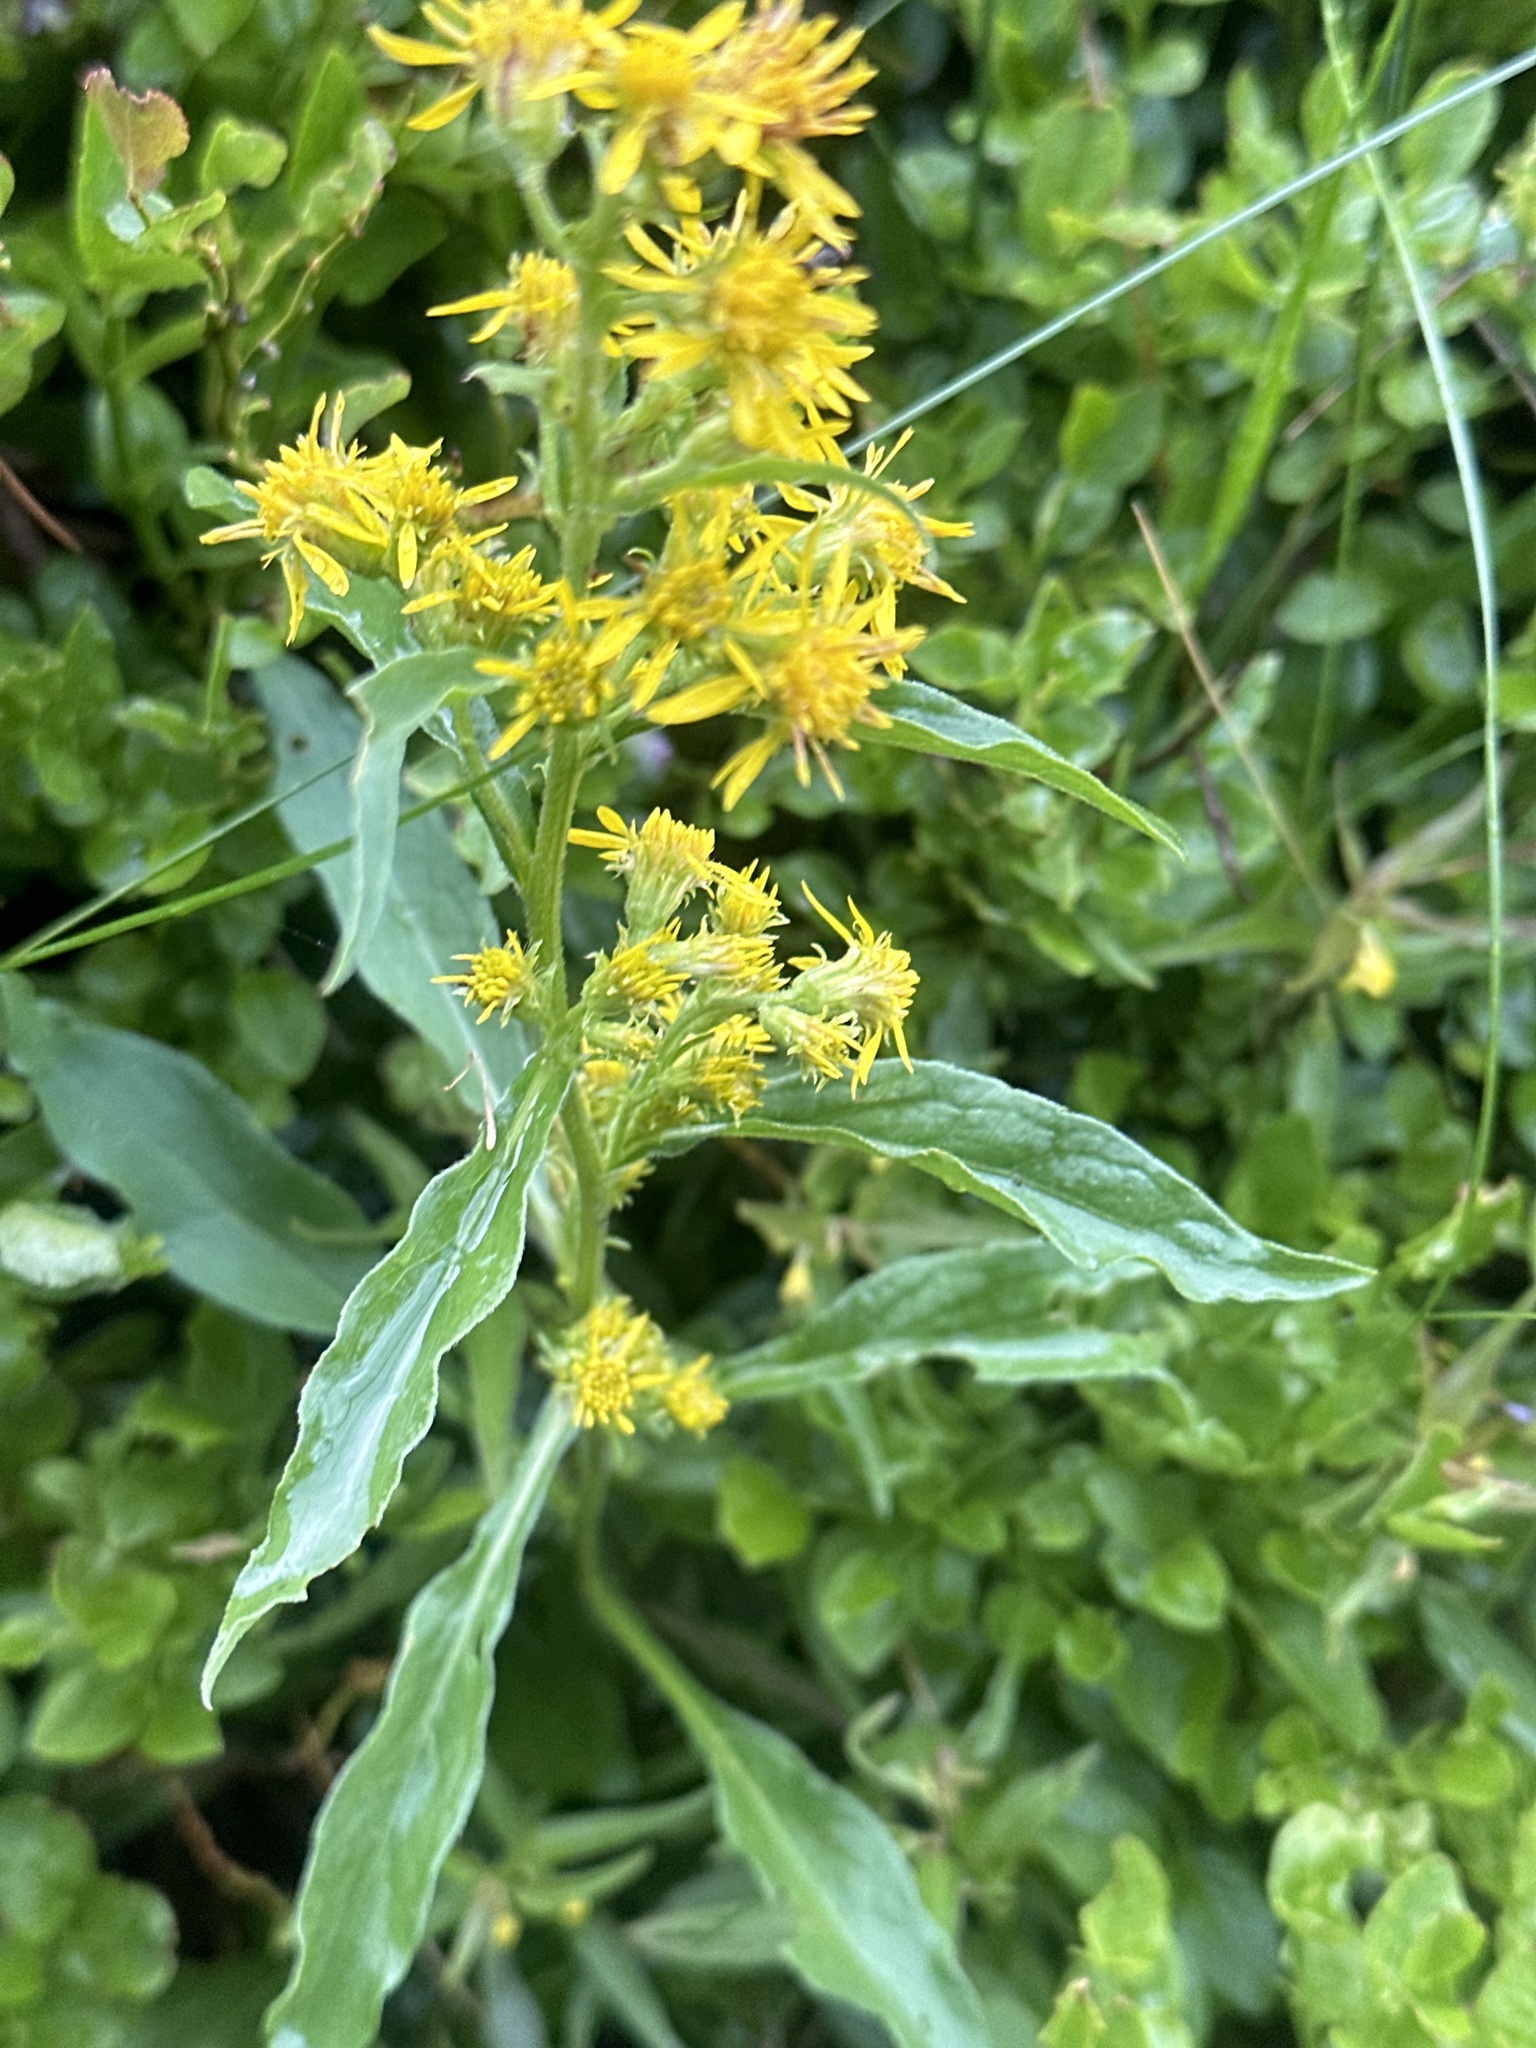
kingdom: Plantae
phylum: Tracheophyta
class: Magnoliopsida
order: Asterales
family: Asteraceae
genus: Solidago
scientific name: Solidago virgaurea
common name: Goldenrod
